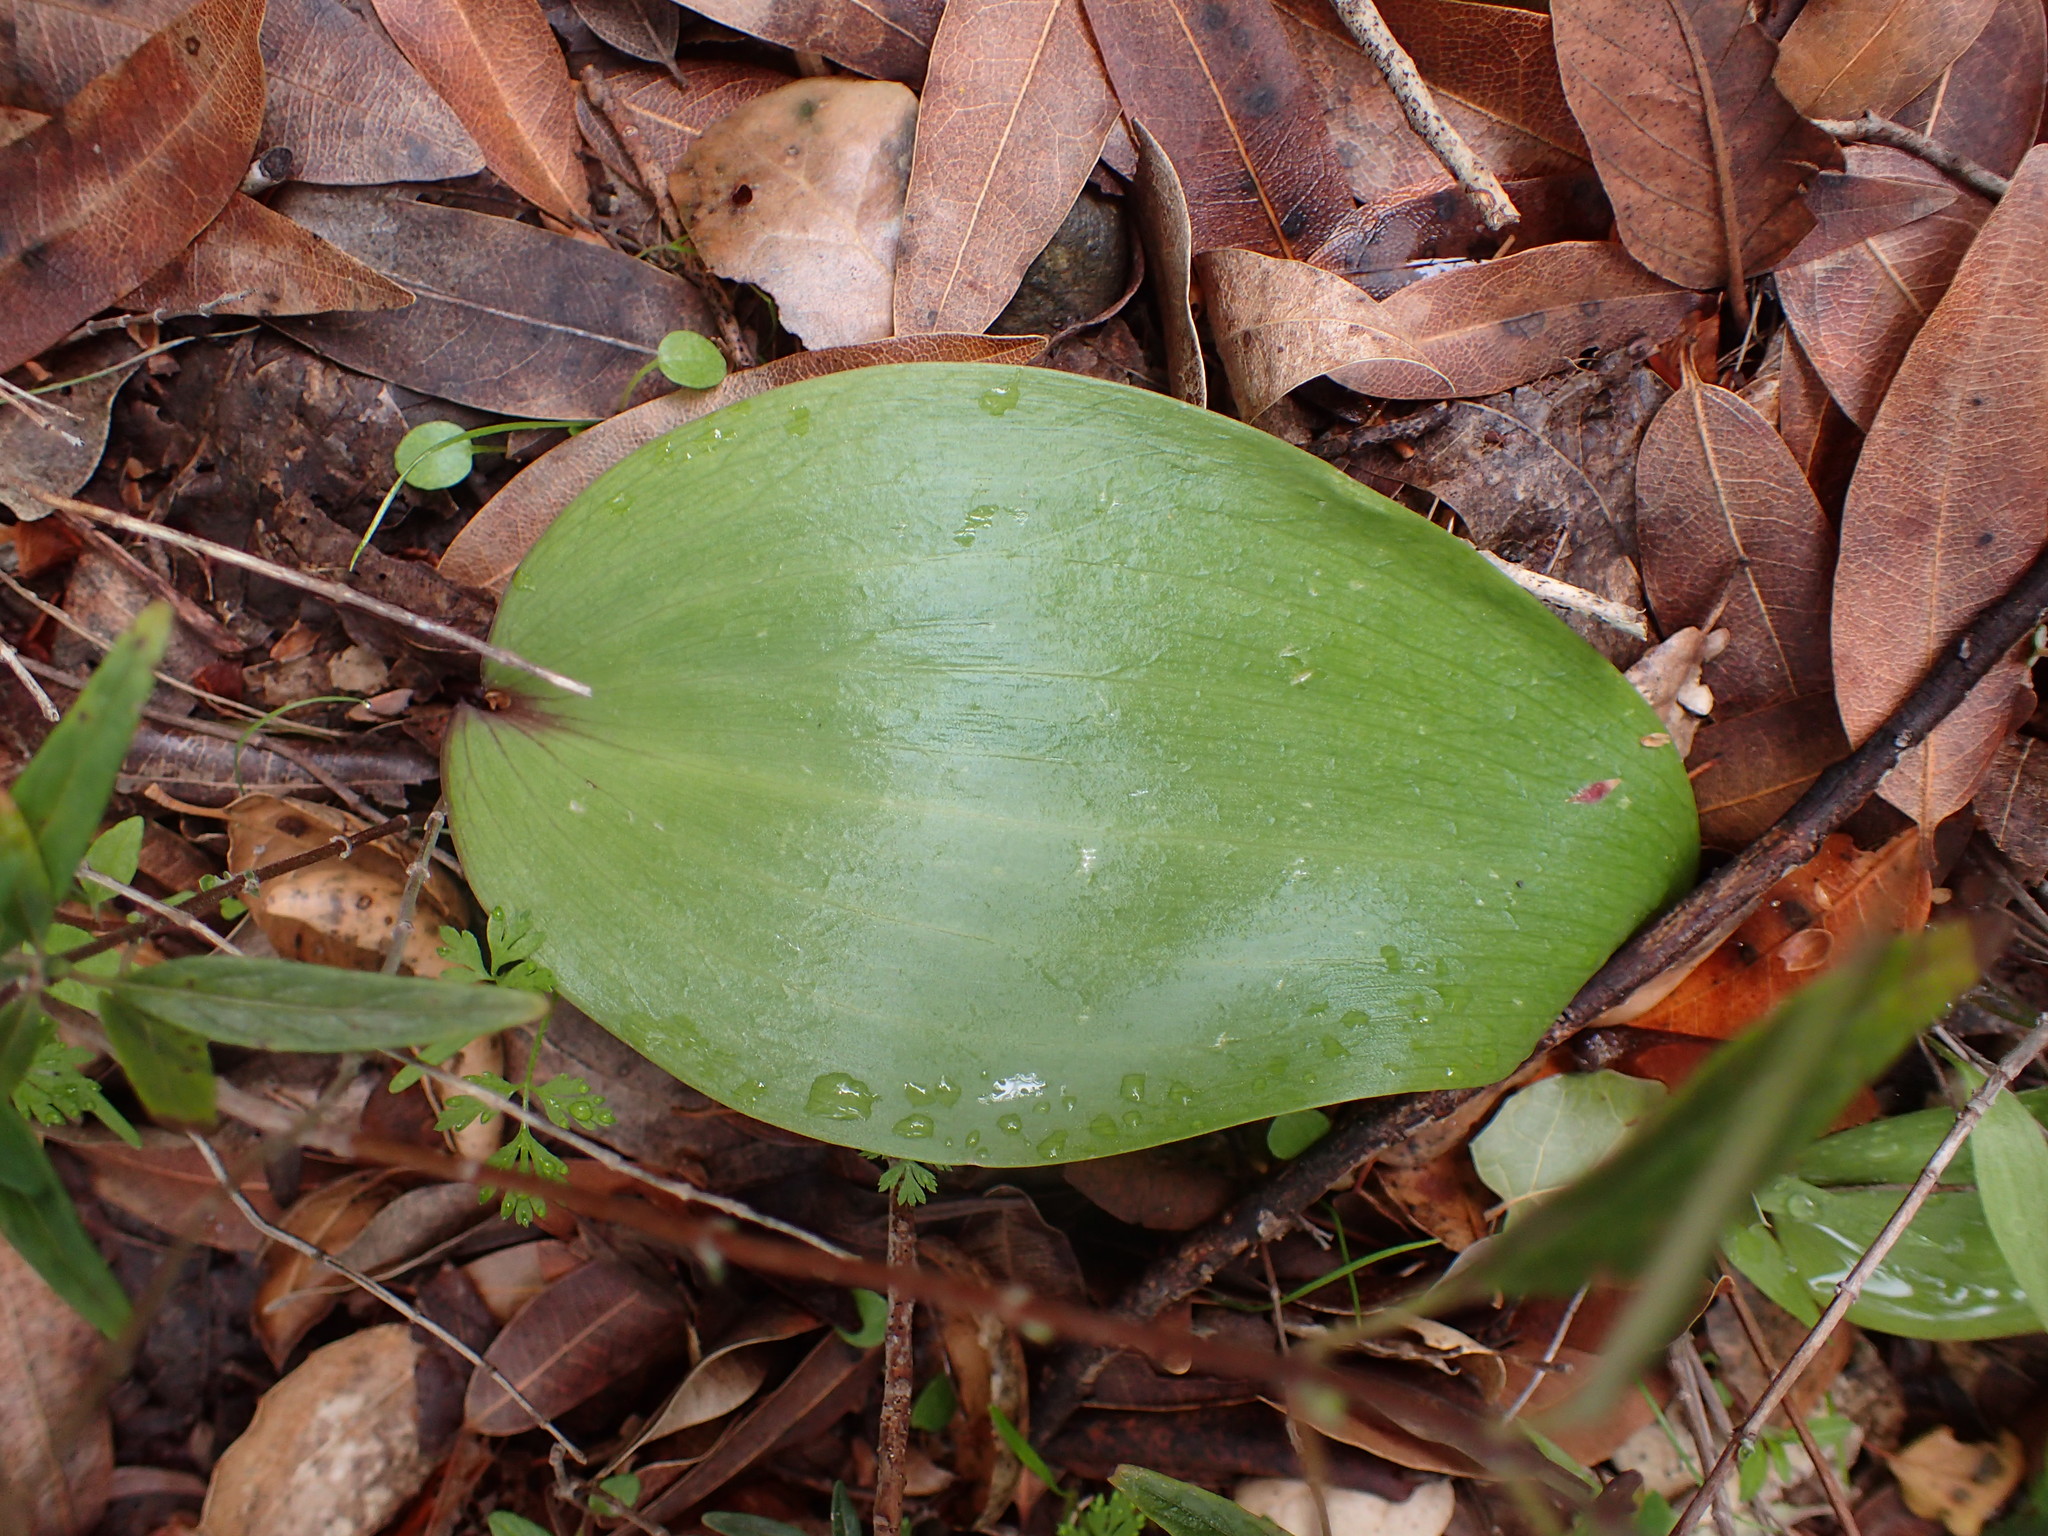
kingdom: Plantae
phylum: Tracheophyta
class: Liliopsida
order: Liliales
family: Liliaceae
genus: Fritillaria
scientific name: Fritillaria ojaiensis
